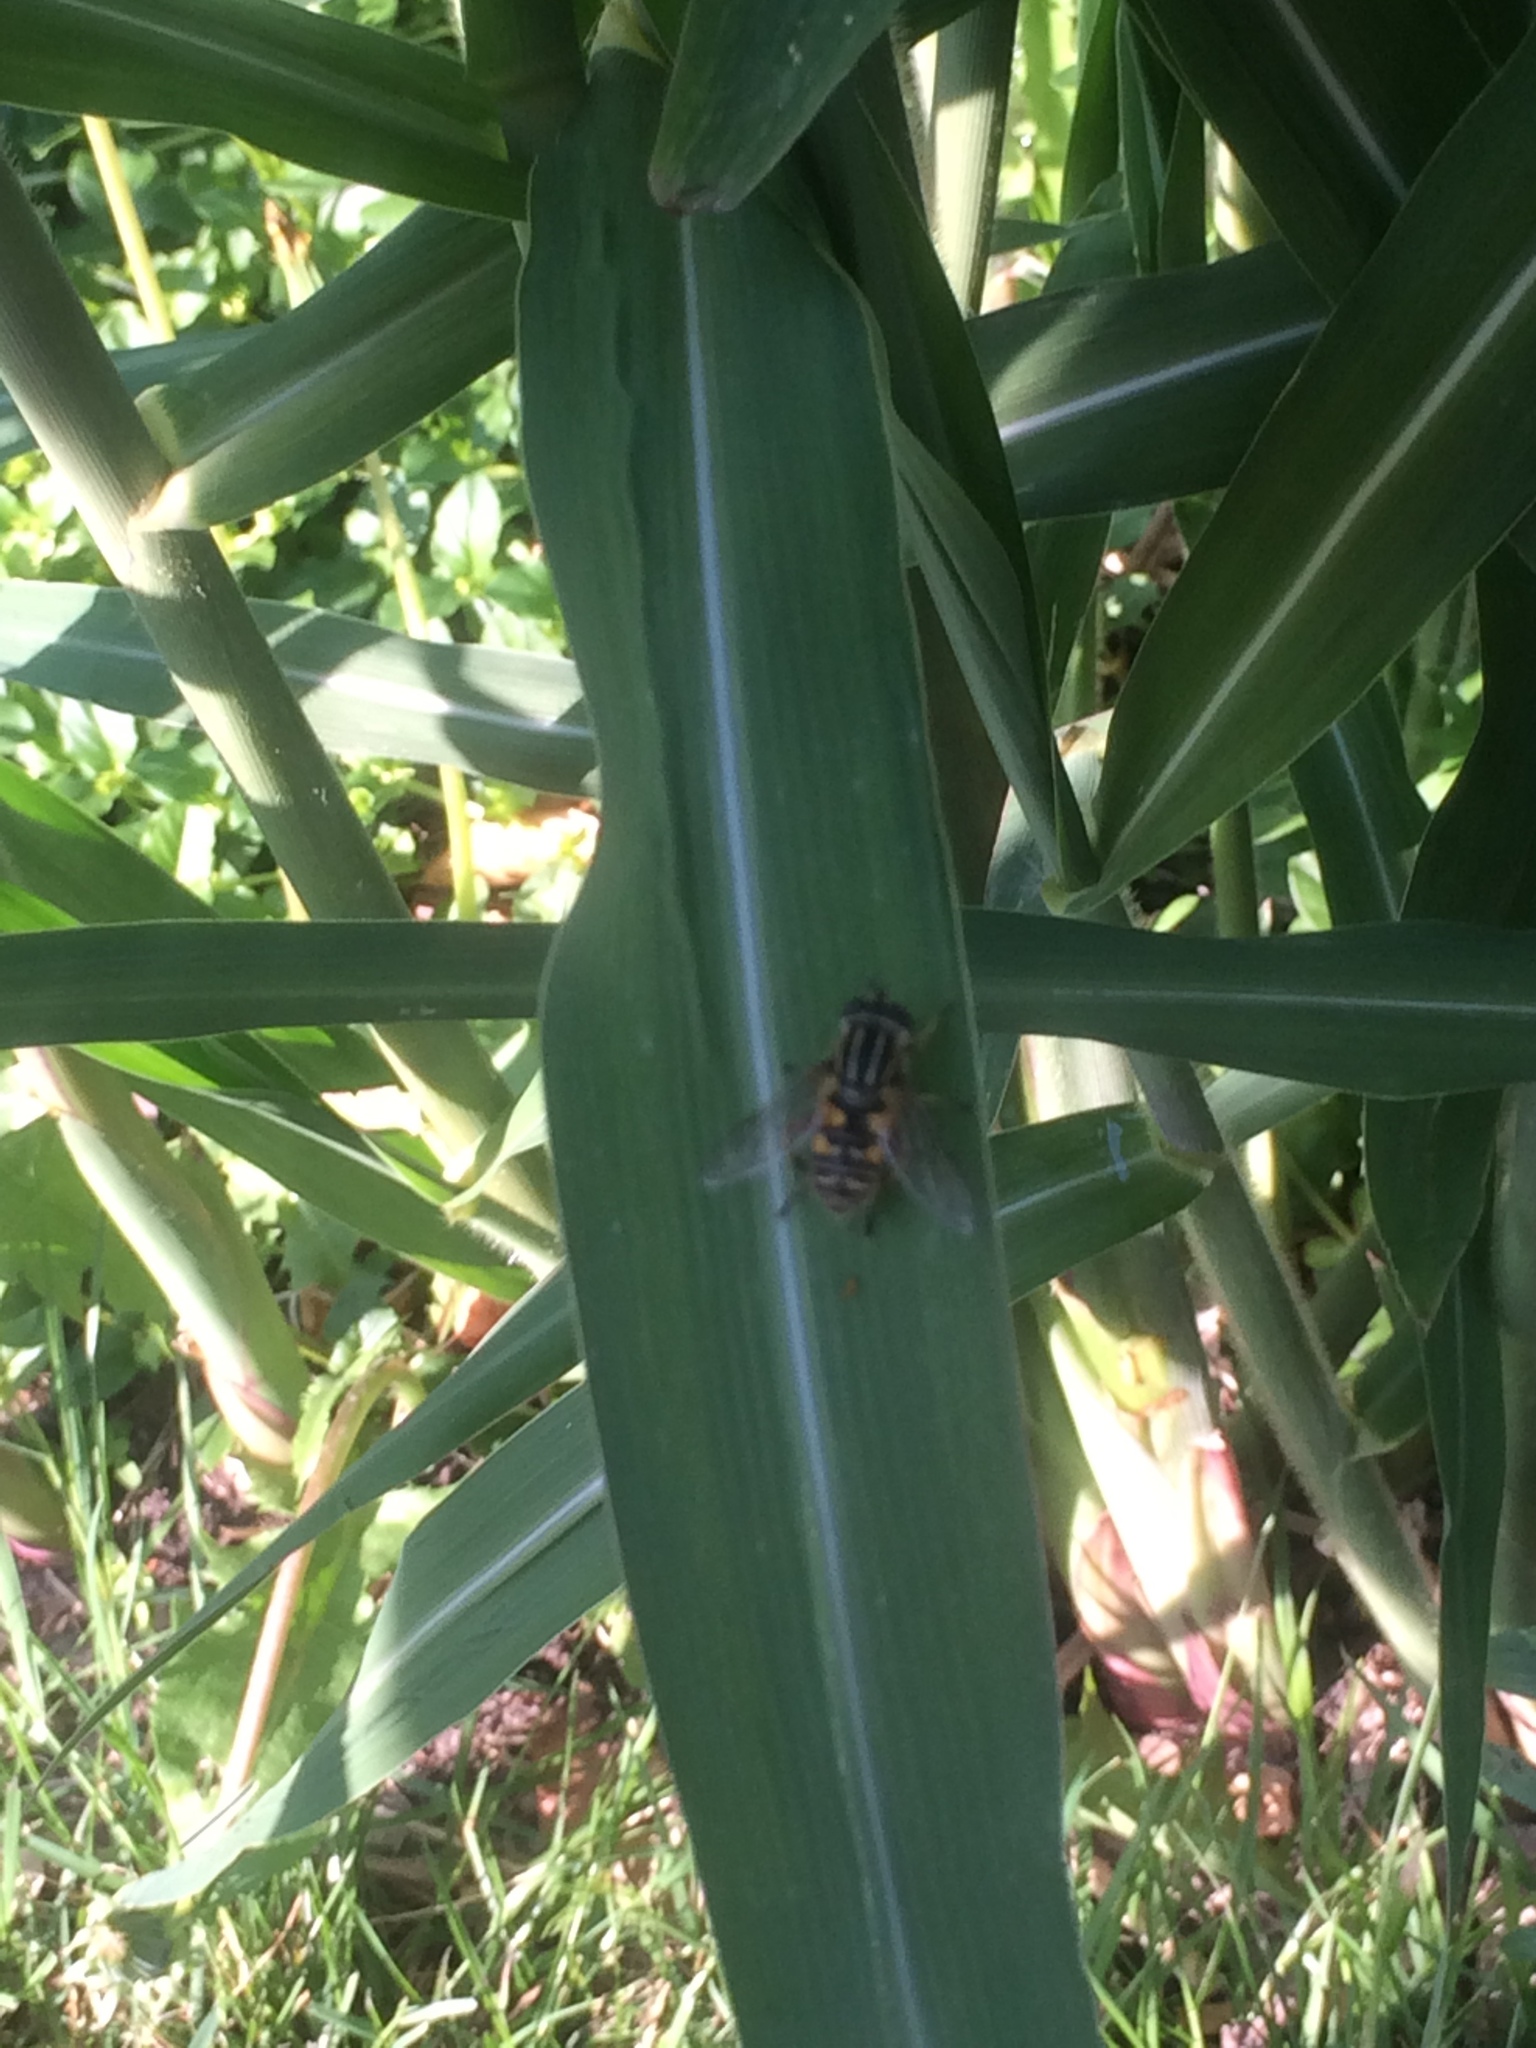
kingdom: Animalia
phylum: Arthropoda
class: Insecta
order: Diptera
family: Syrphidae
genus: Helophilus
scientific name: Helophilus pendulus
